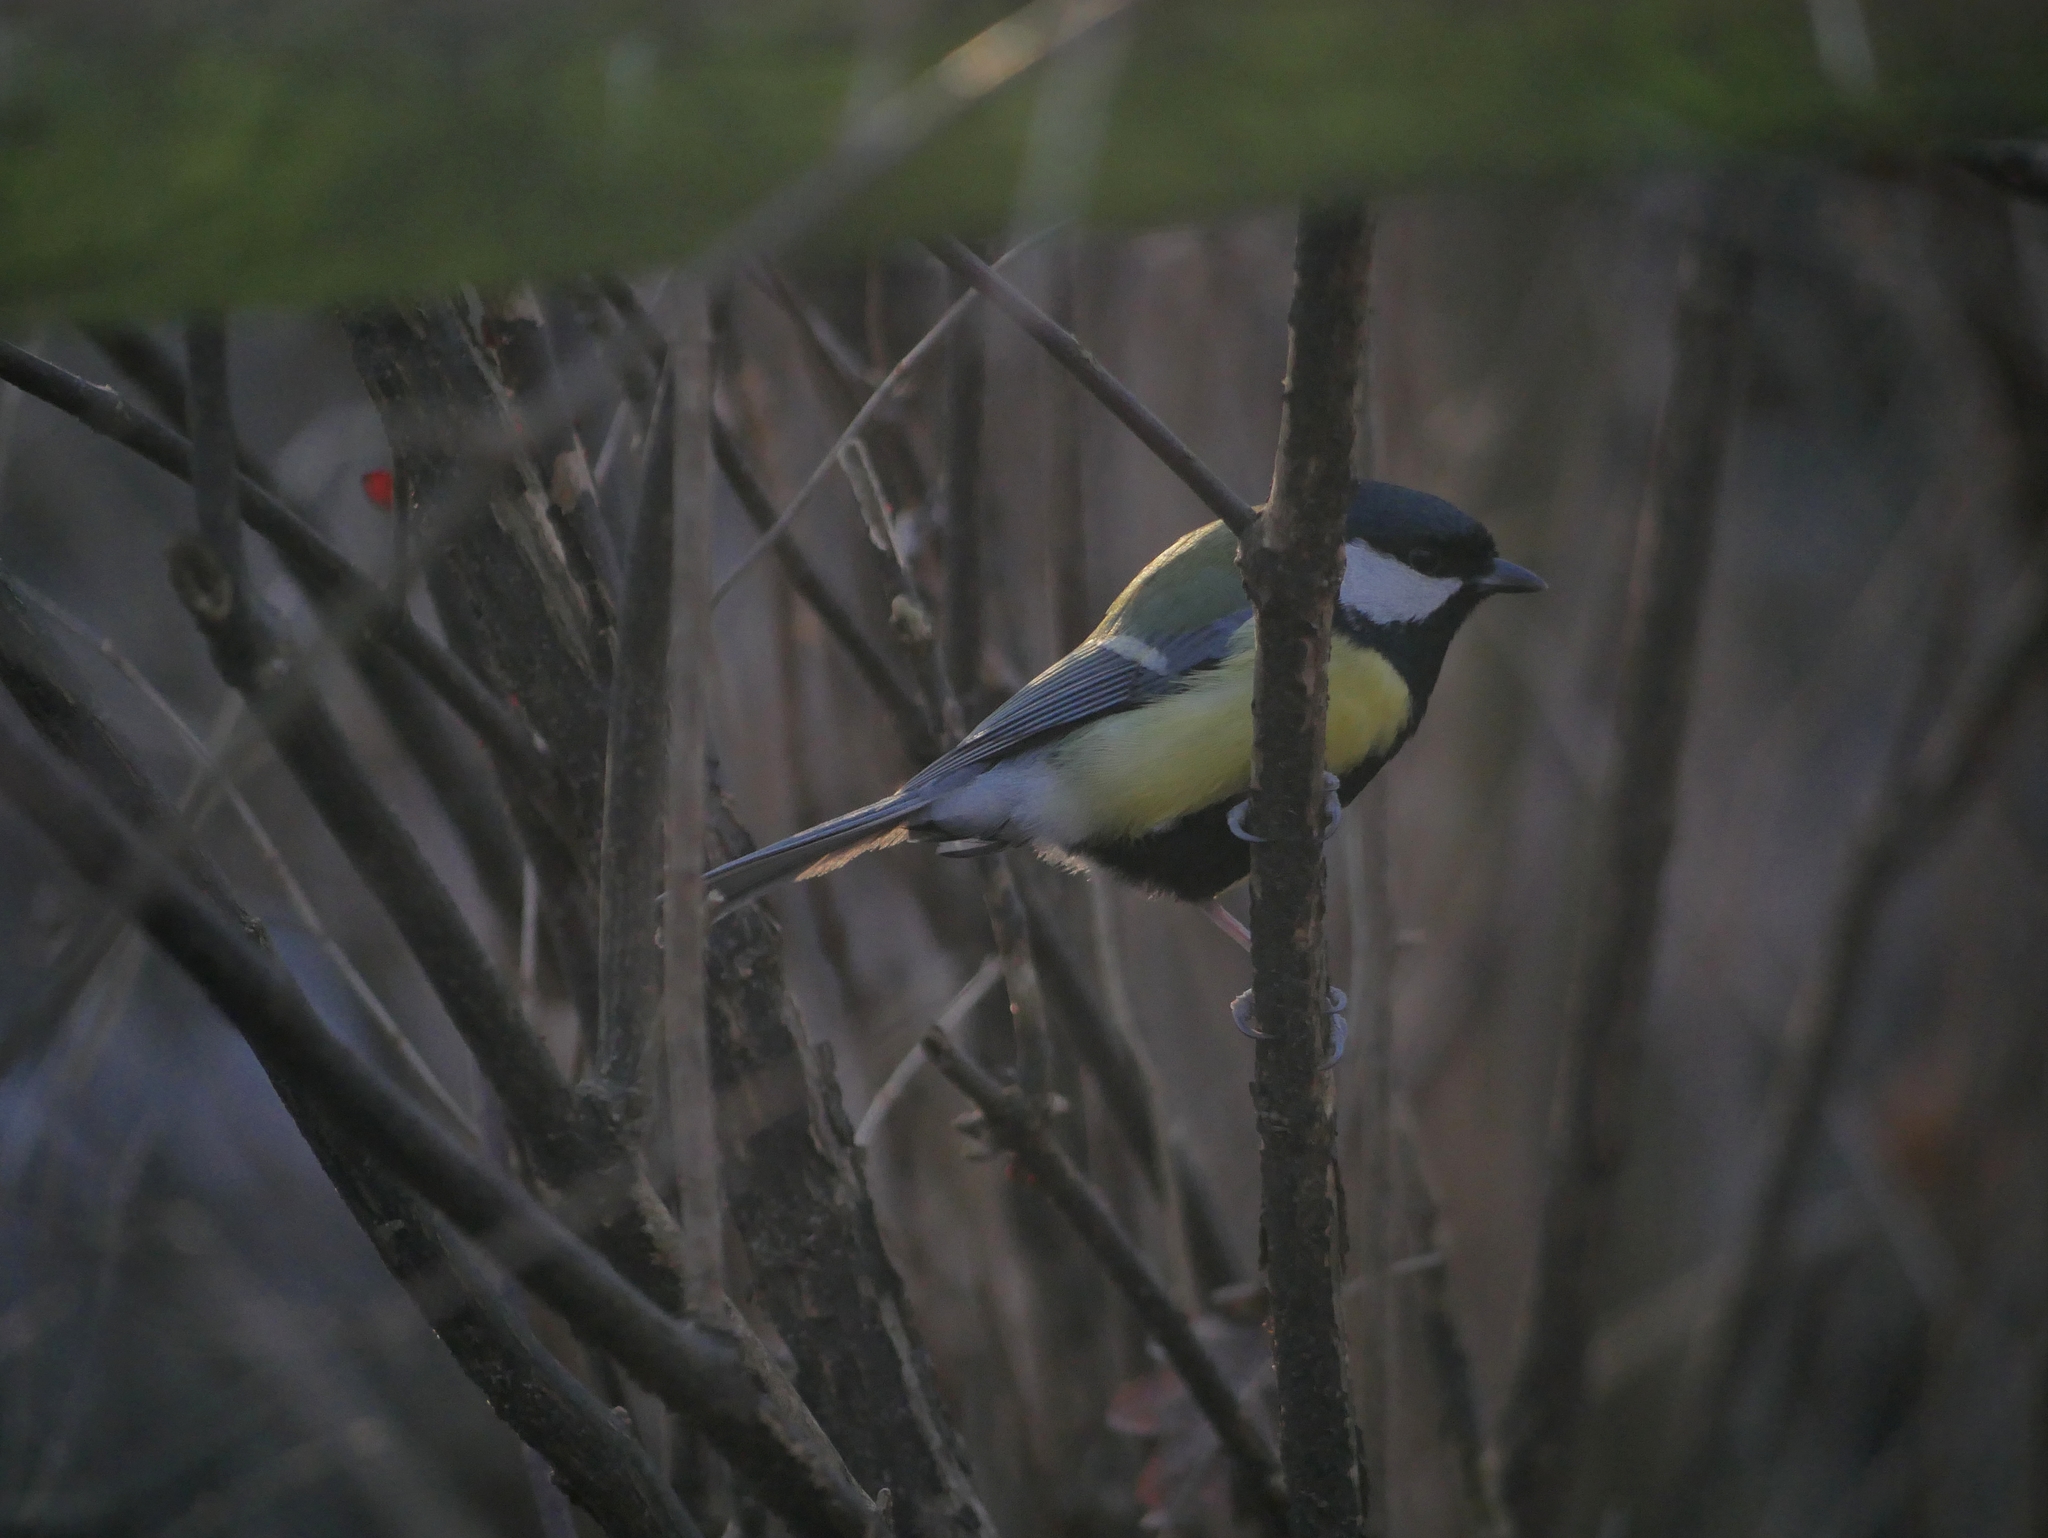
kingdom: Animalia
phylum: Chordata
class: Aves
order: Passeriformes
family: Paridae
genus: Parus
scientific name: Parus major
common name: Great tit
